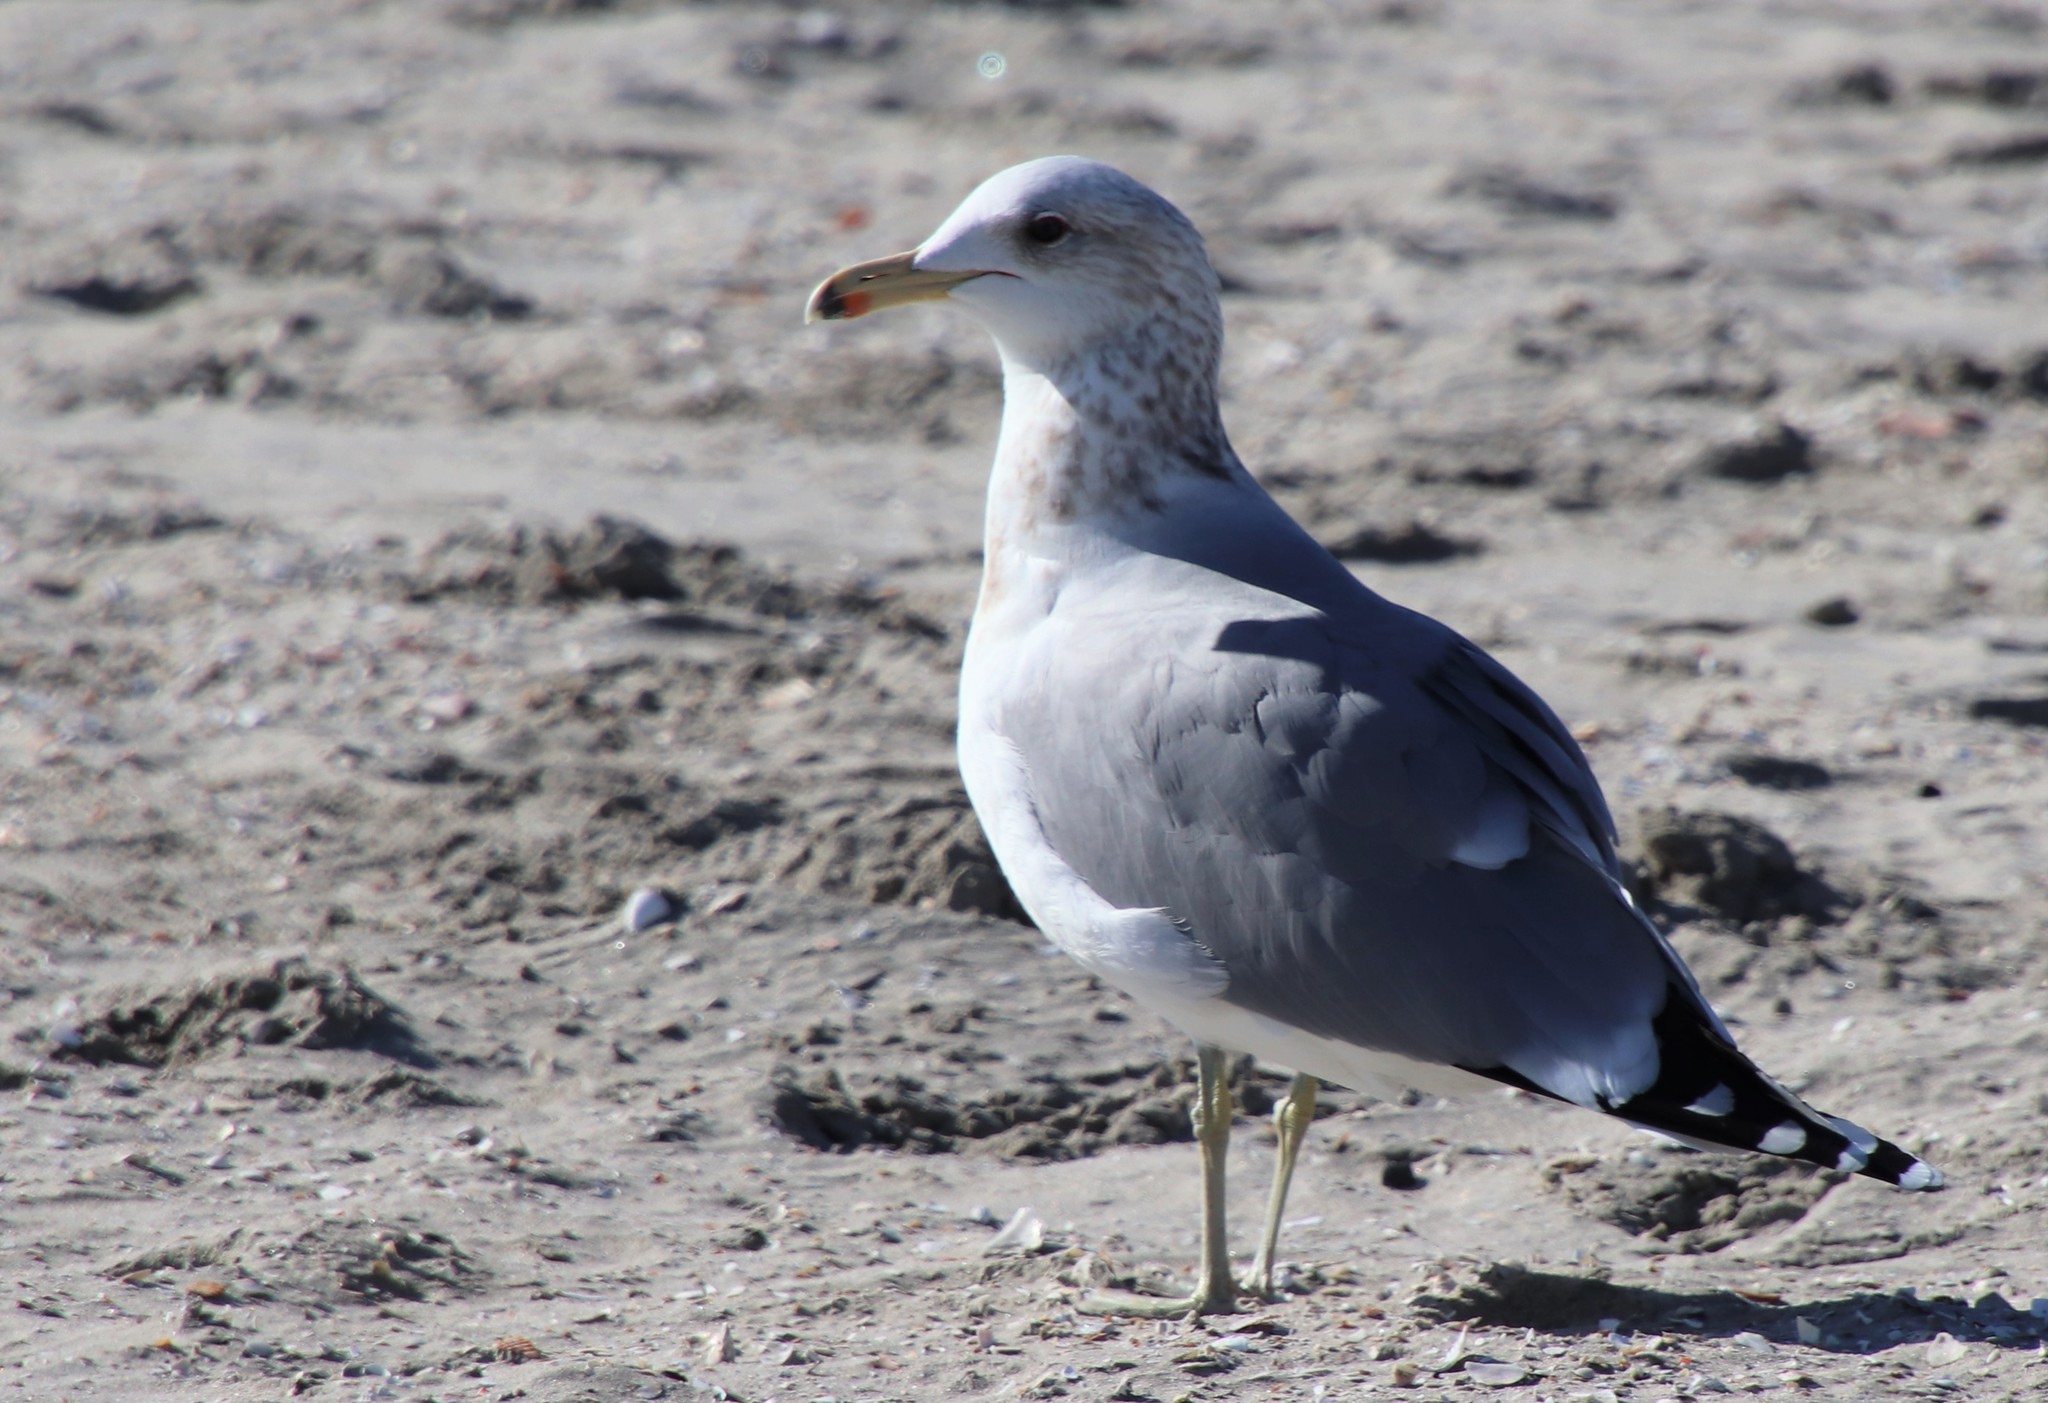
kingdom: Animalia
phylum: Chordata
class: Aves
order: Charadriiformes
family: Laridae
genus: Larus
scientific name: Larus californicus
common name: California gull
